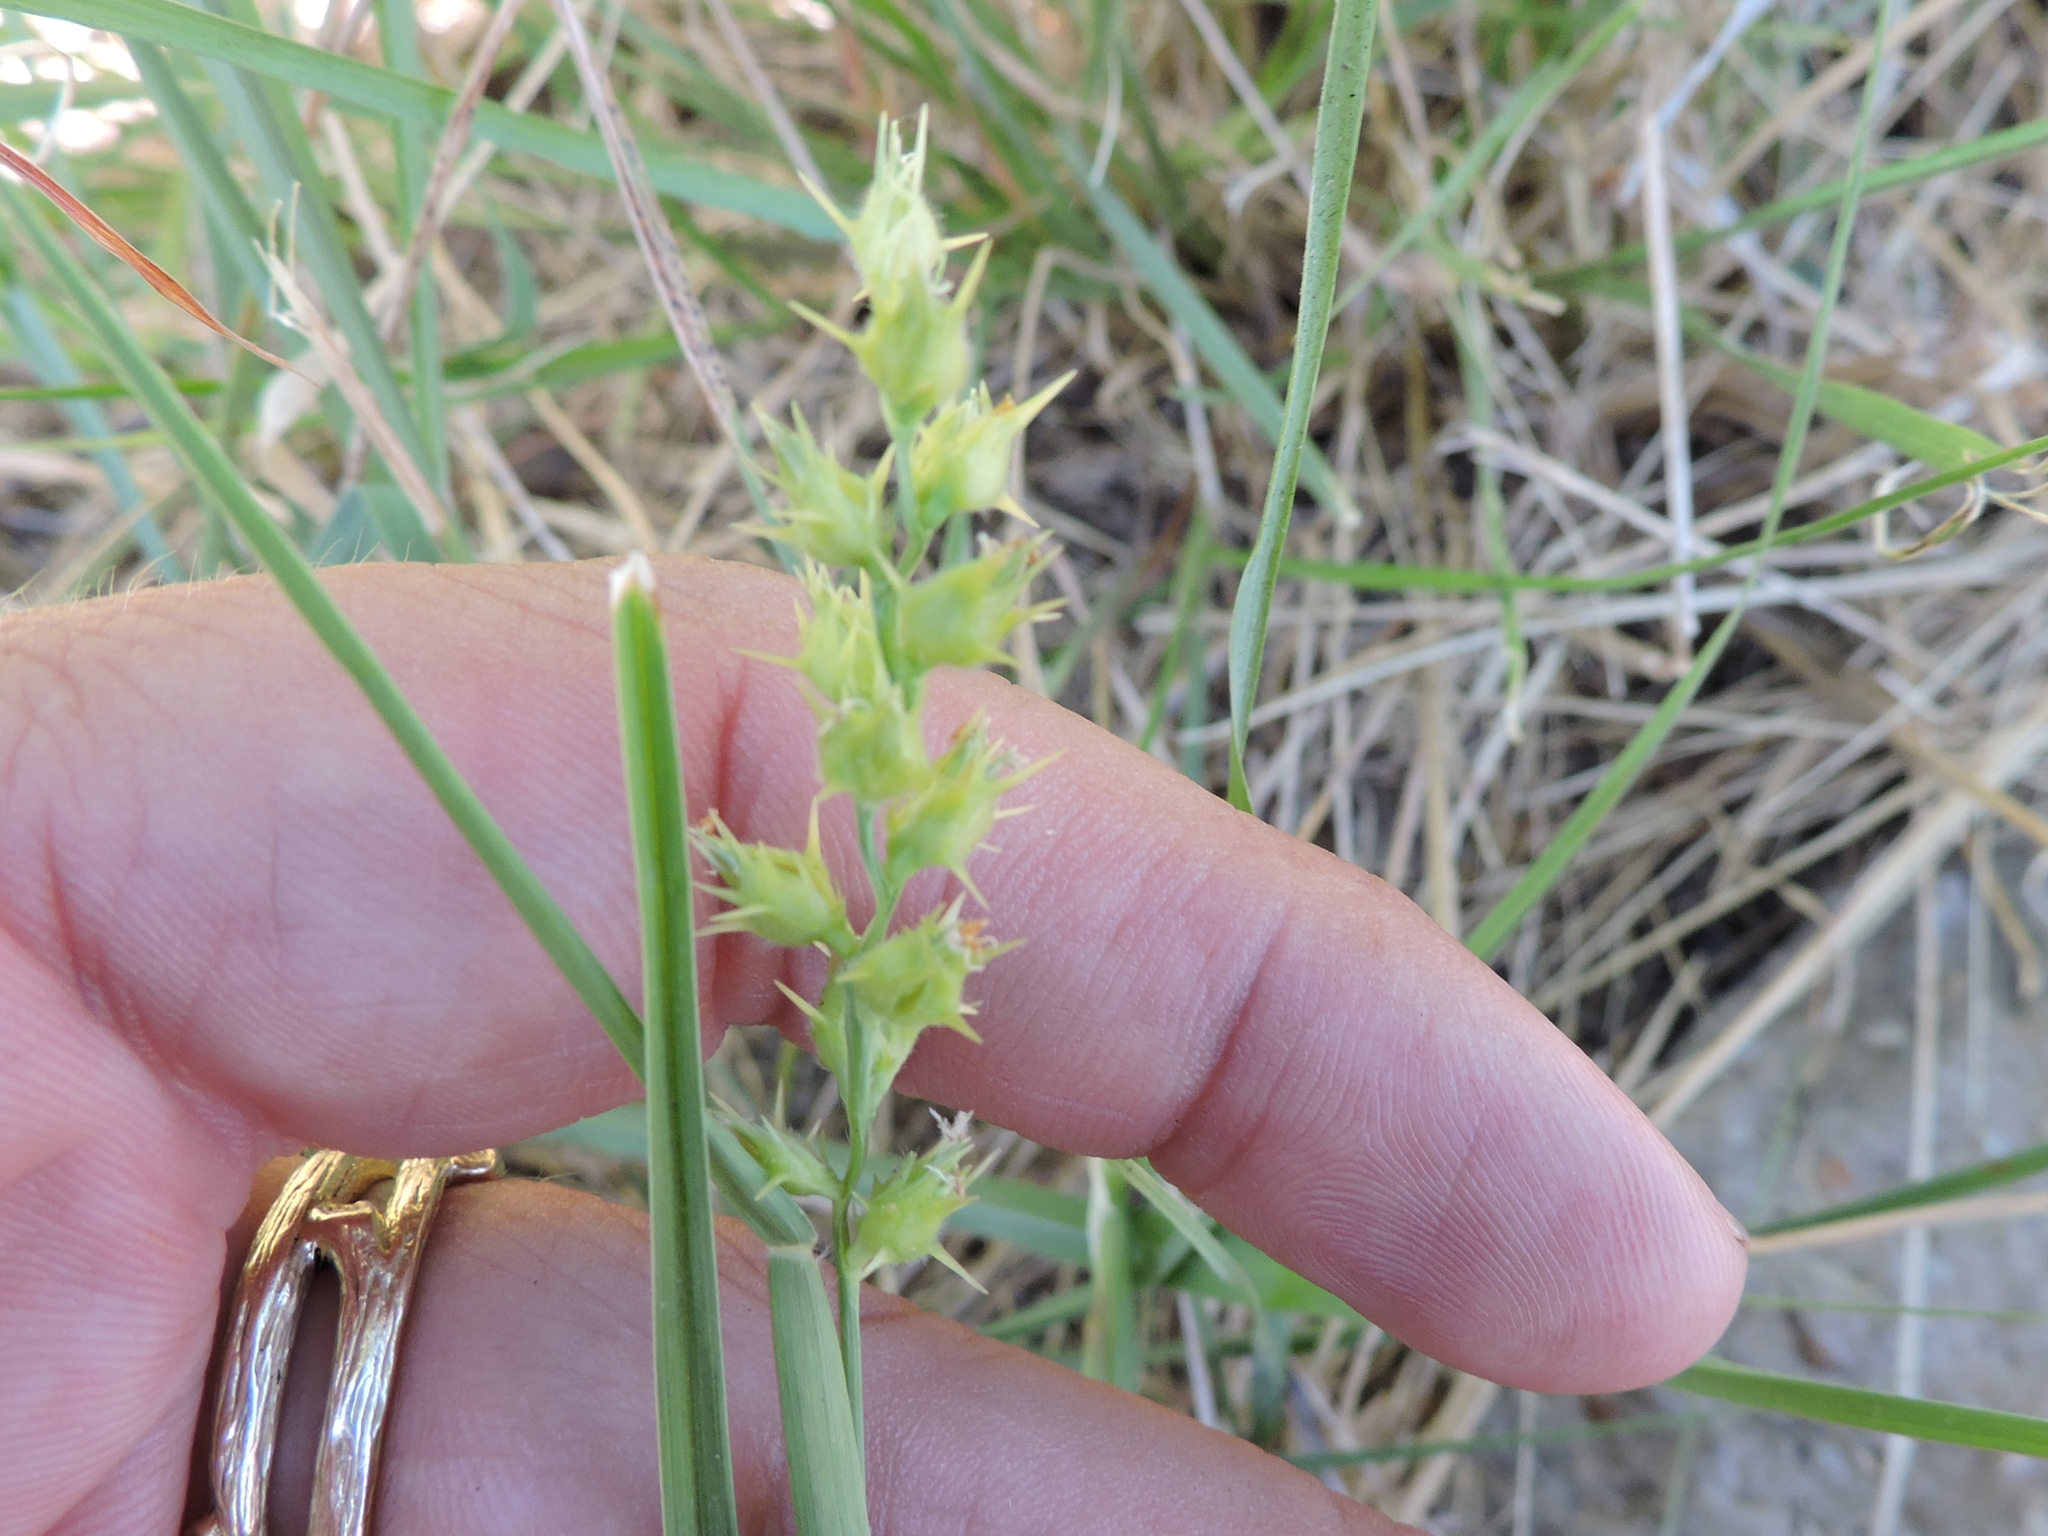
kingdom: Plantae
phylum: Tracheophyta
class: Liliopsida
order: Poales
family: Poaceae
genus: Cenchrus
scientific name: Cenchrus spinifex
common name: Coast sandbur
